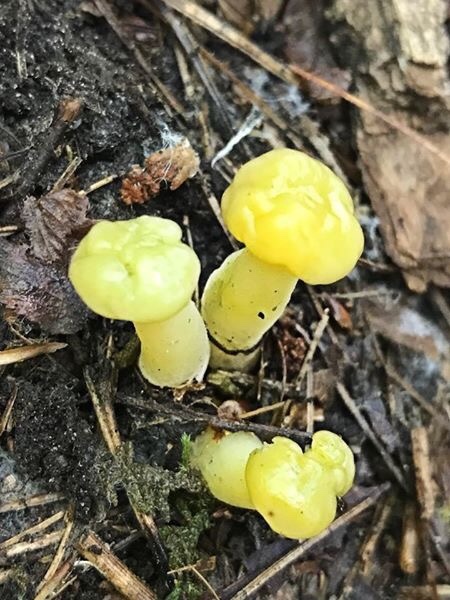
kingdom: Fungi
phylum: Ascomycota
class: Leotiomycetes
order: Leotiales
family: Leotiaceae
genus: Leotia
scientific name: Leotia lubrica
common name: Jellybaby
